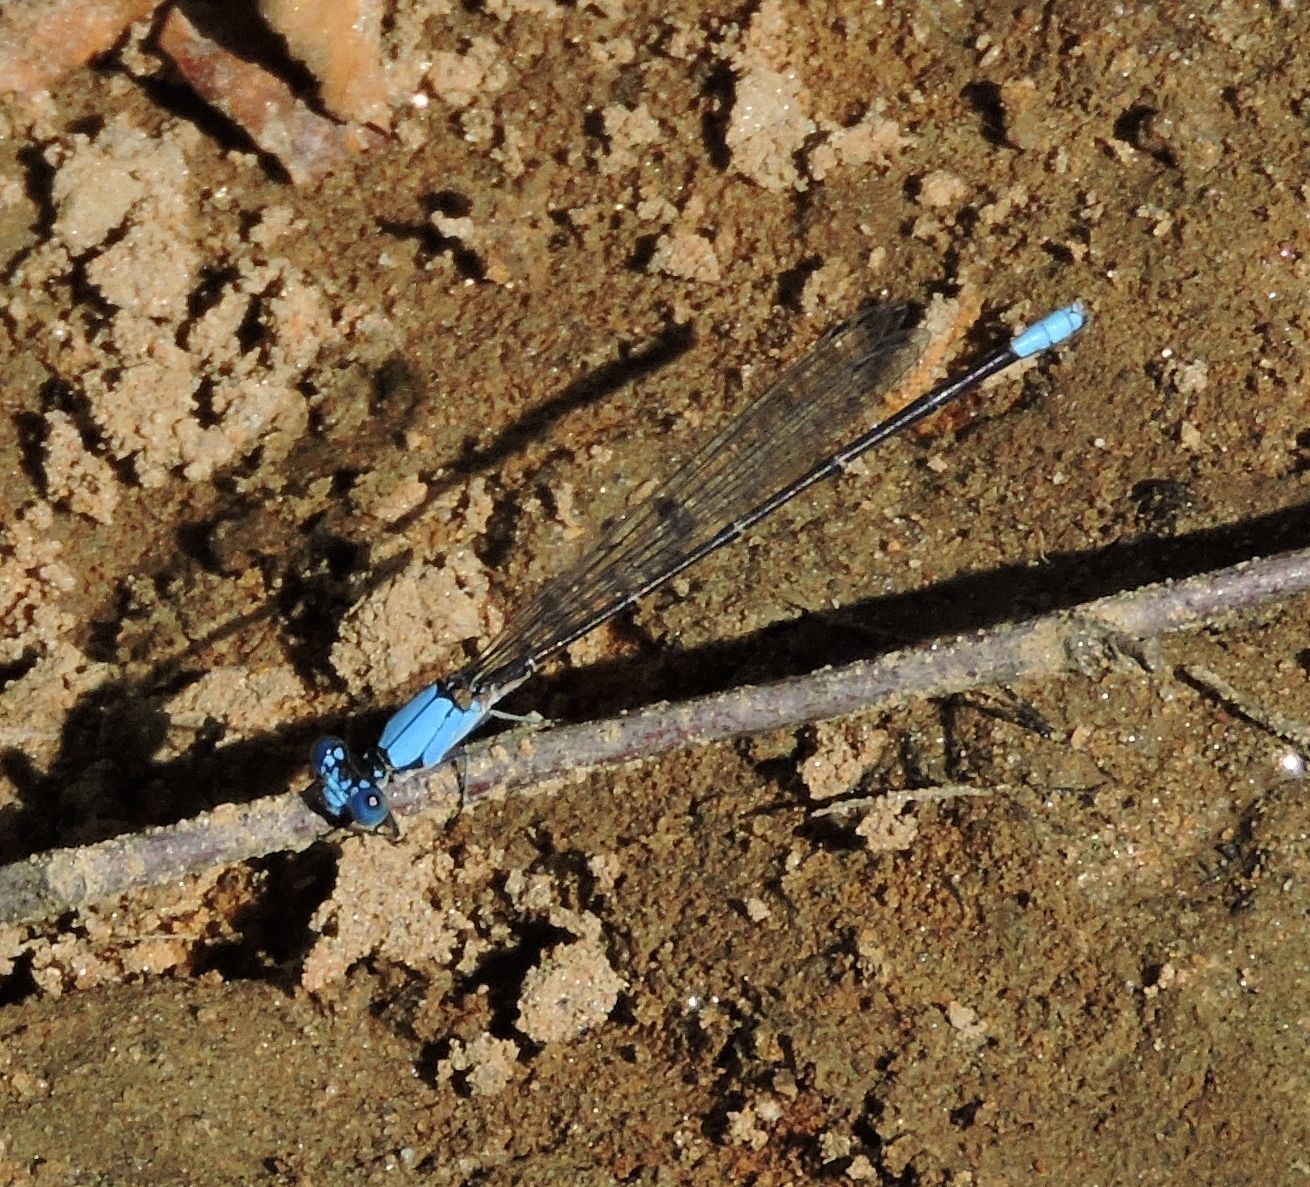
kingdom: Animalia
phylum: Arthropoda
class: Insecta
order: Odonata
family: Coenagrionidae
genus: Argia
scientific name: Argia apicalis
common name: Blue-fronted dancer
